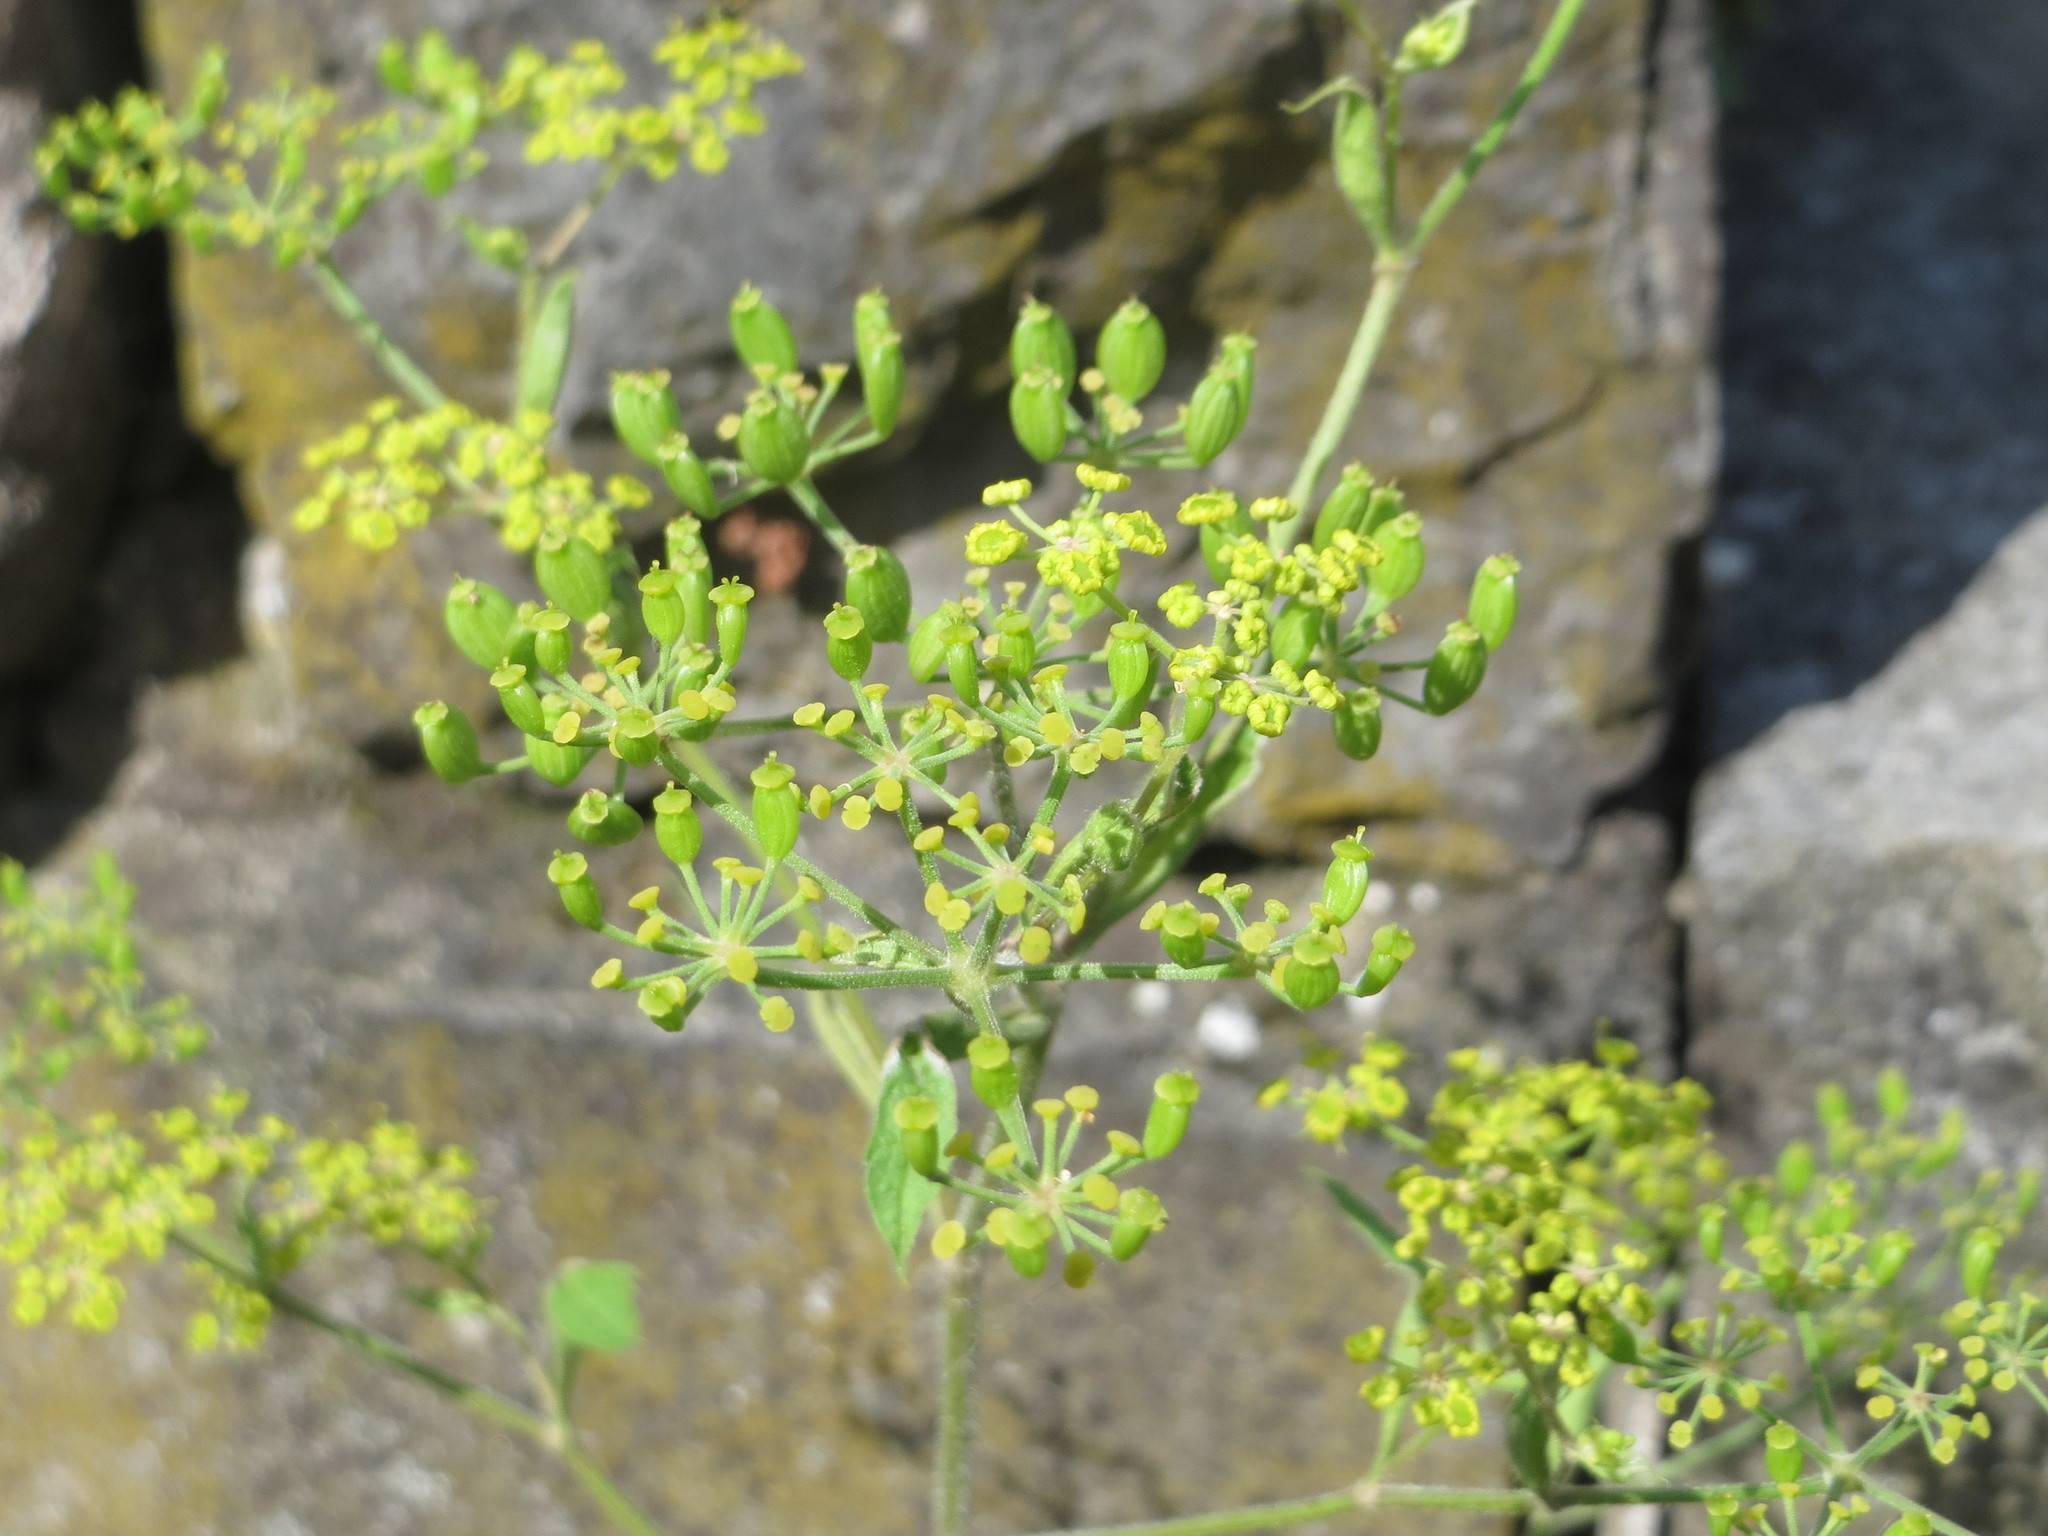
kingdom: Plantae
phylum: Tracheophyta
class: Magnoliopsida
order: Apiales
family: Apiaceae
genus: Pastinaca
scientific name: Pastinaca sativa
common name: Wild parsnip
